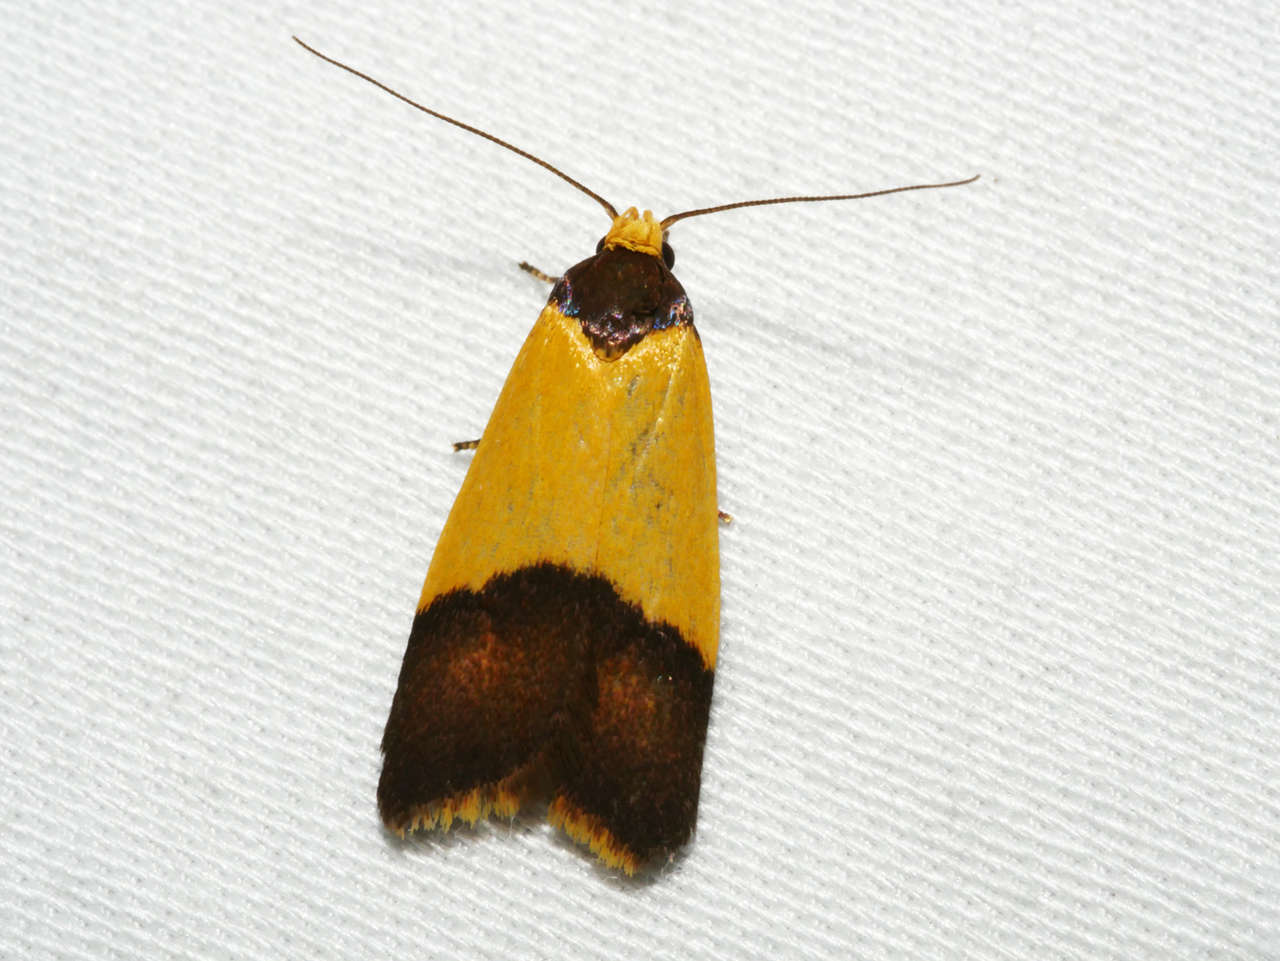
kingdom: Animalia
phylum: Arthropoda
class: Insecta
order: Lepidoptera
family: Oecophoridae
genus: Heteroteucha
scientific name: Heteroteucha dichroella
